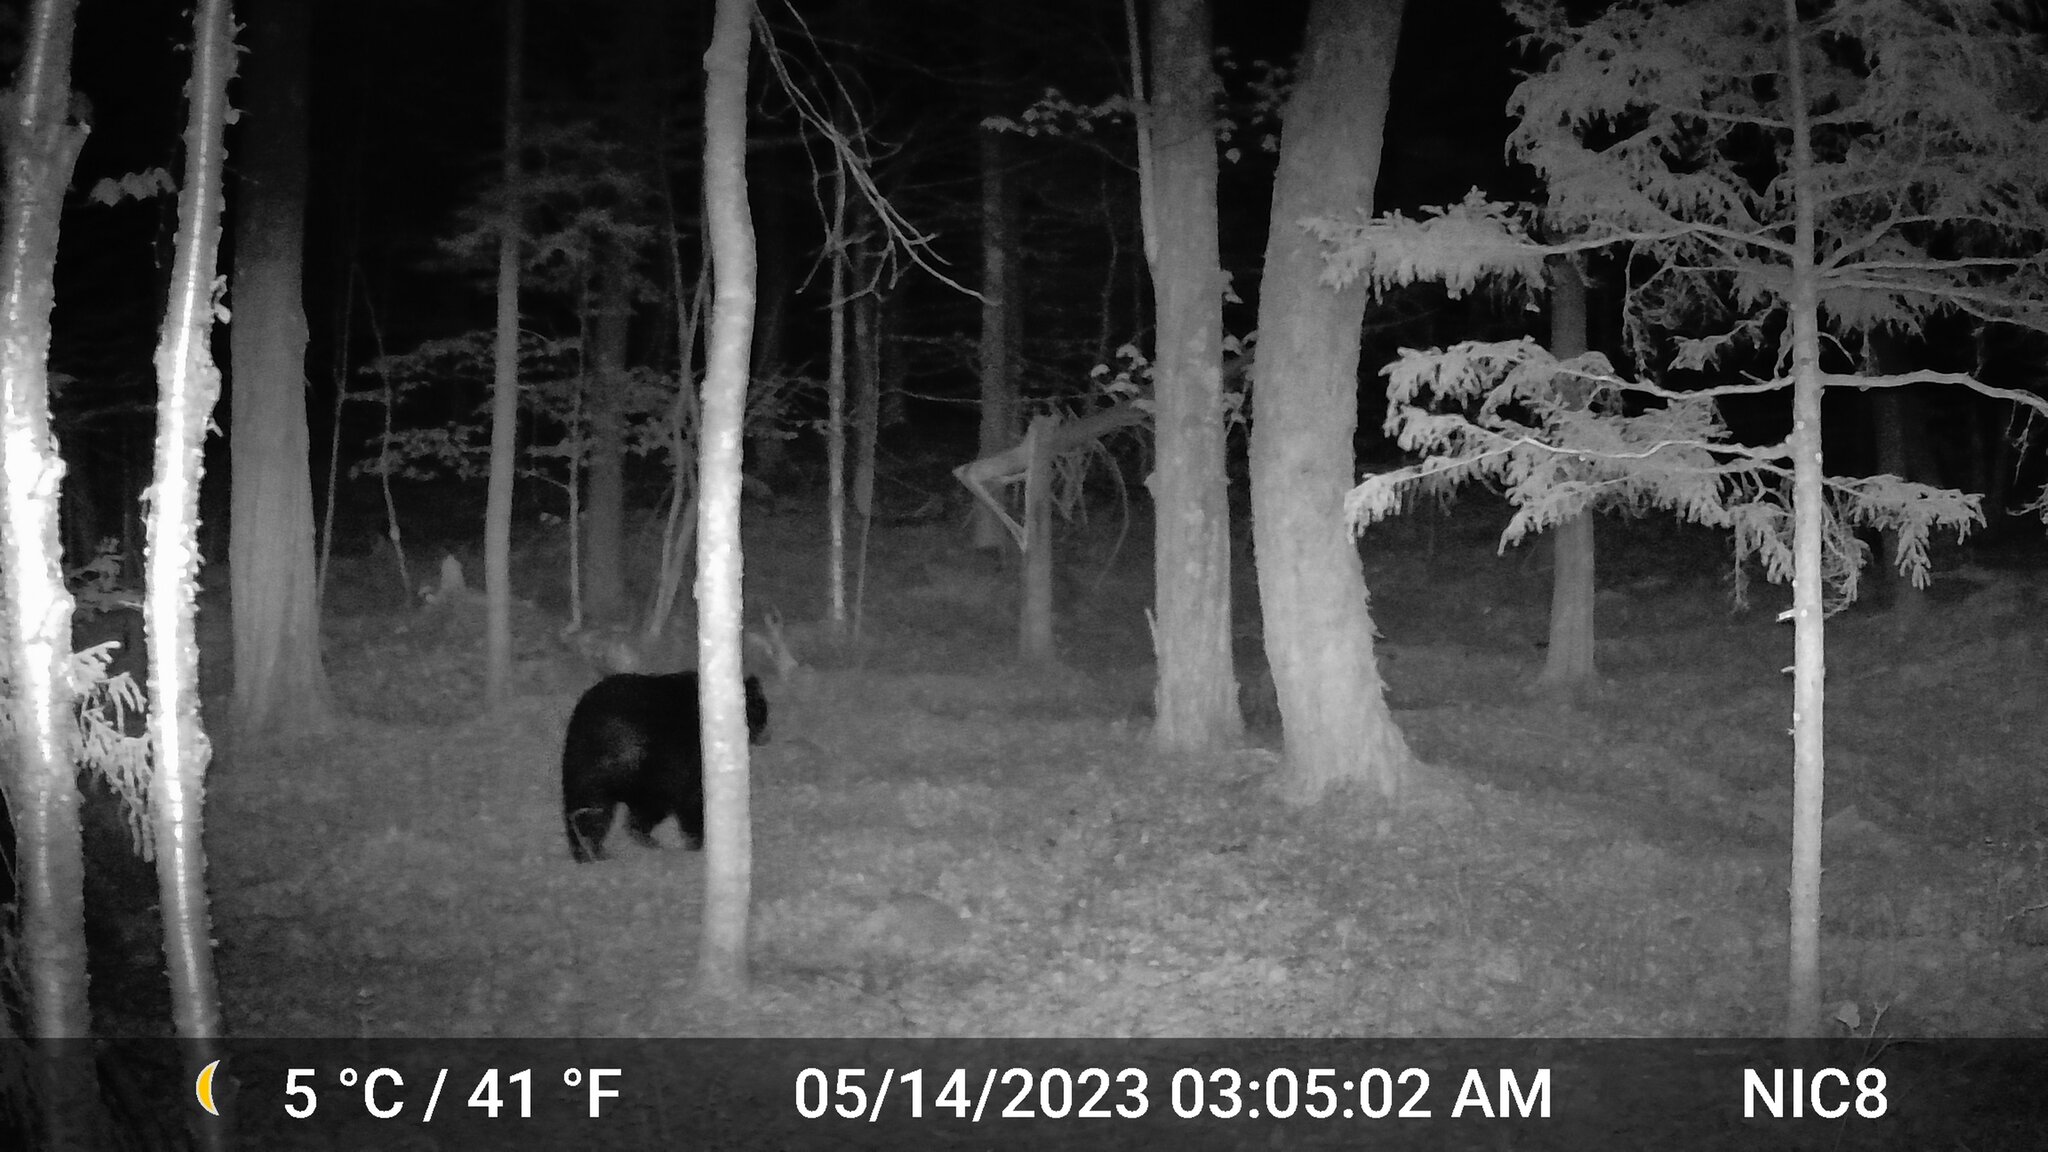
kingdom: Animalia
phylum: Chordata
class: Mammalia
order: Carnivora
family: Ursidae
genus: Ursus
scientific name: Ursus americanus
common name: American black bear
